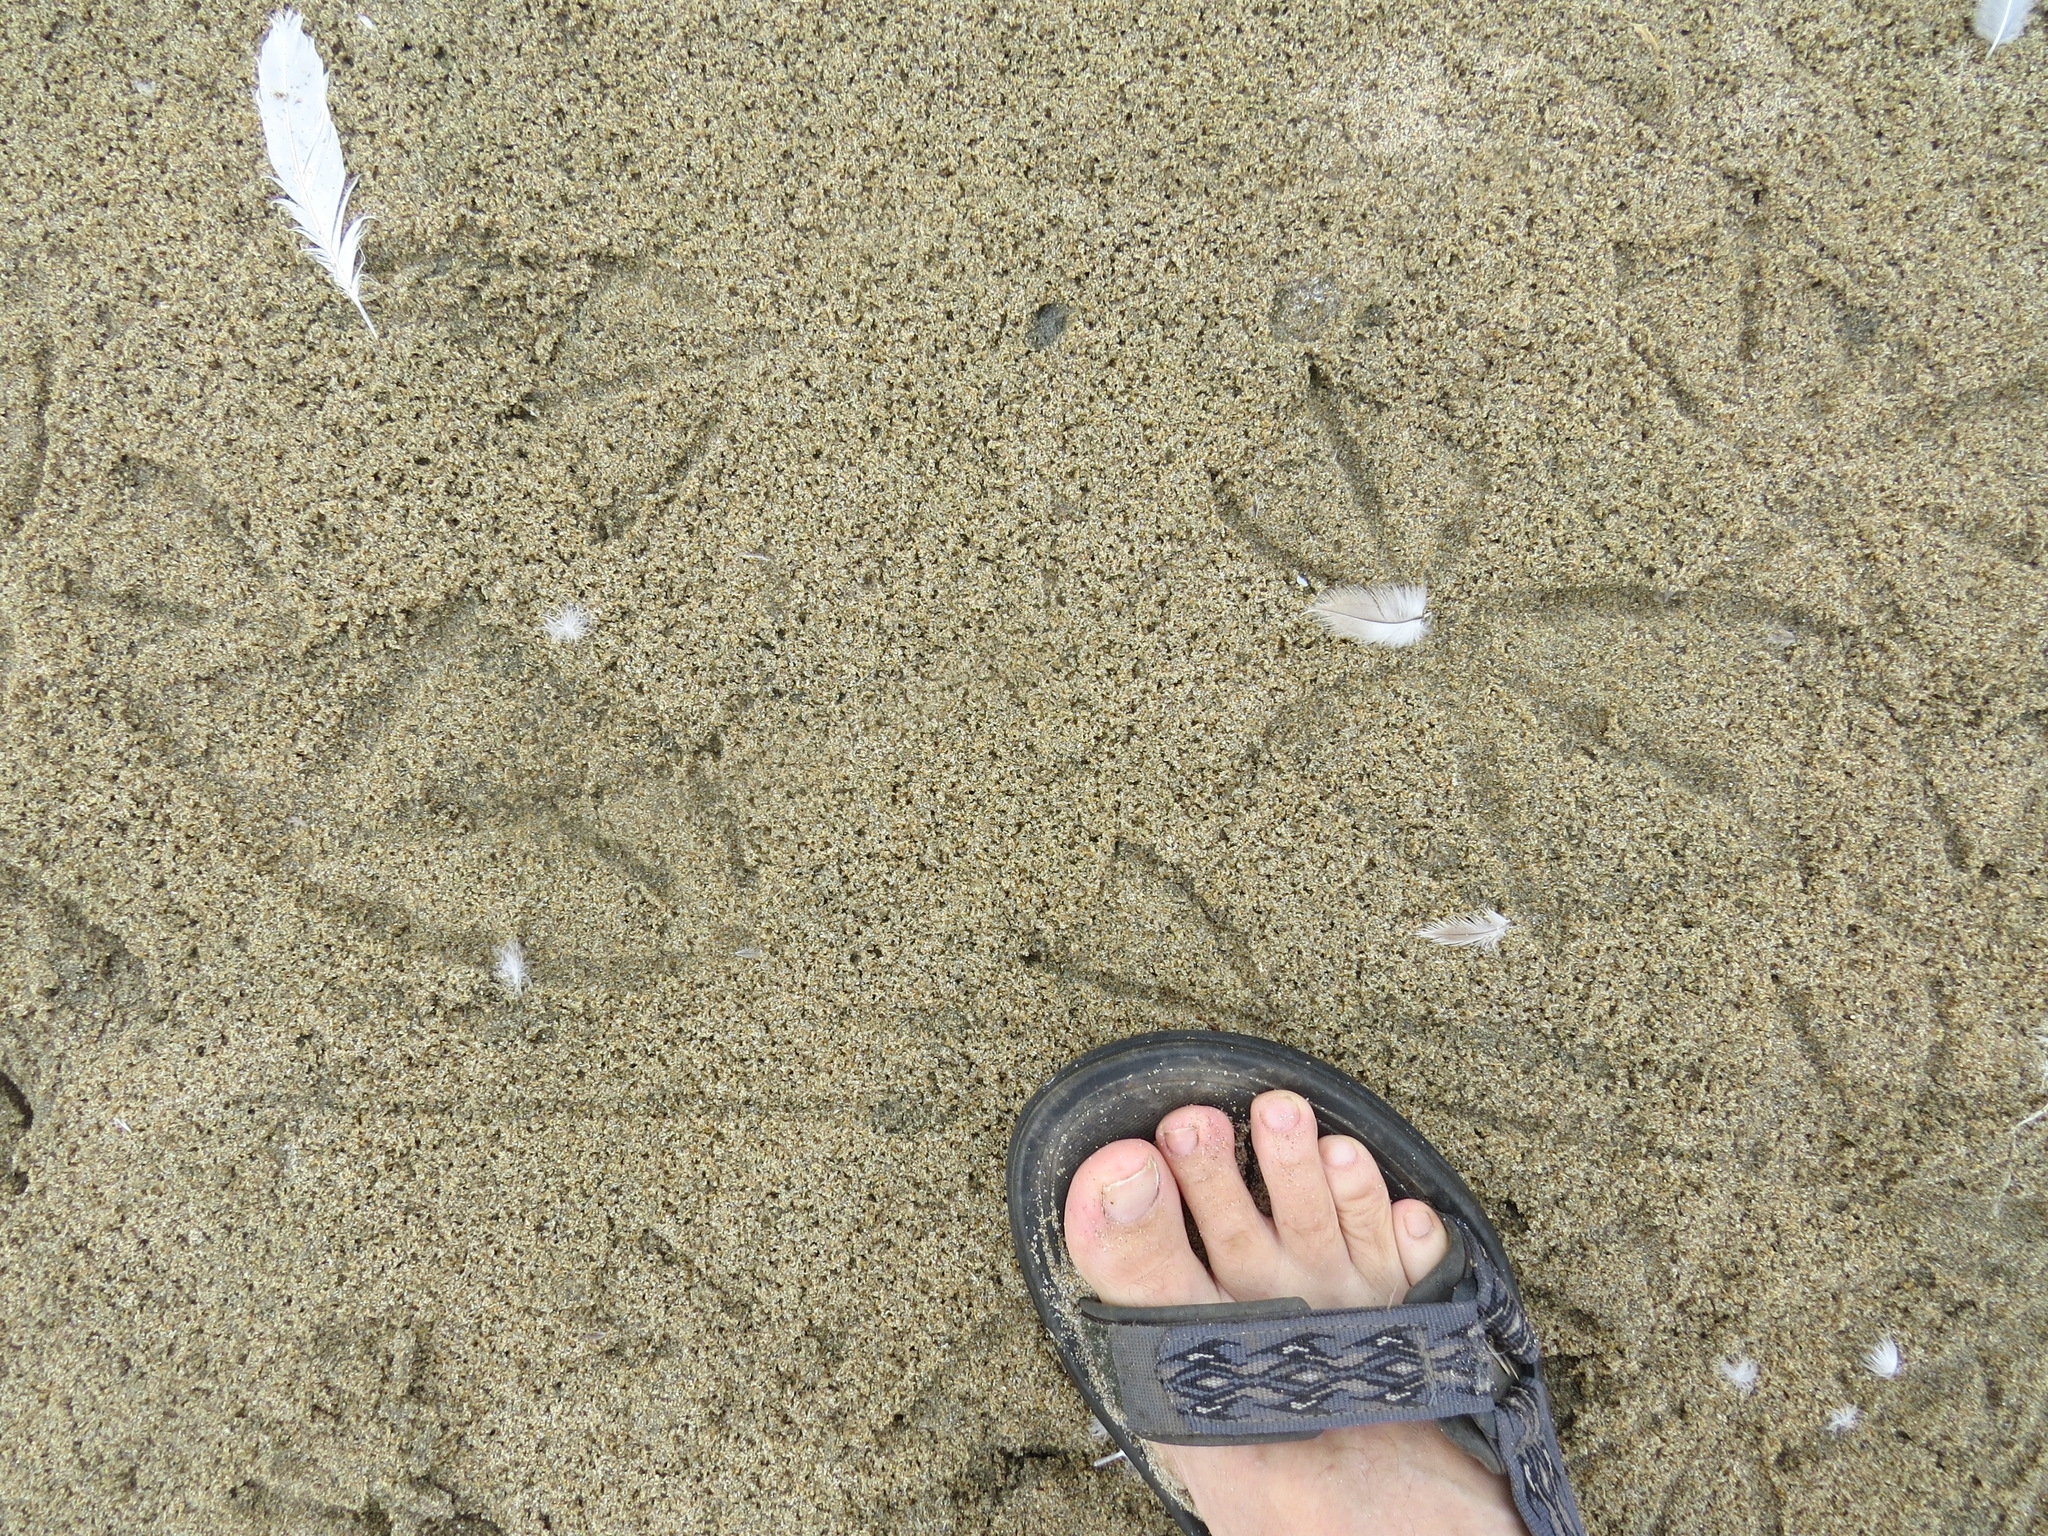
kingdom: Animalia
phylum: Chordata
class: Aves
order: Pelecaniformes
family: Pelecanidae
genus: Pelecanus
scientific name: Pelecanus occidentalis
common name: Brown pelican
